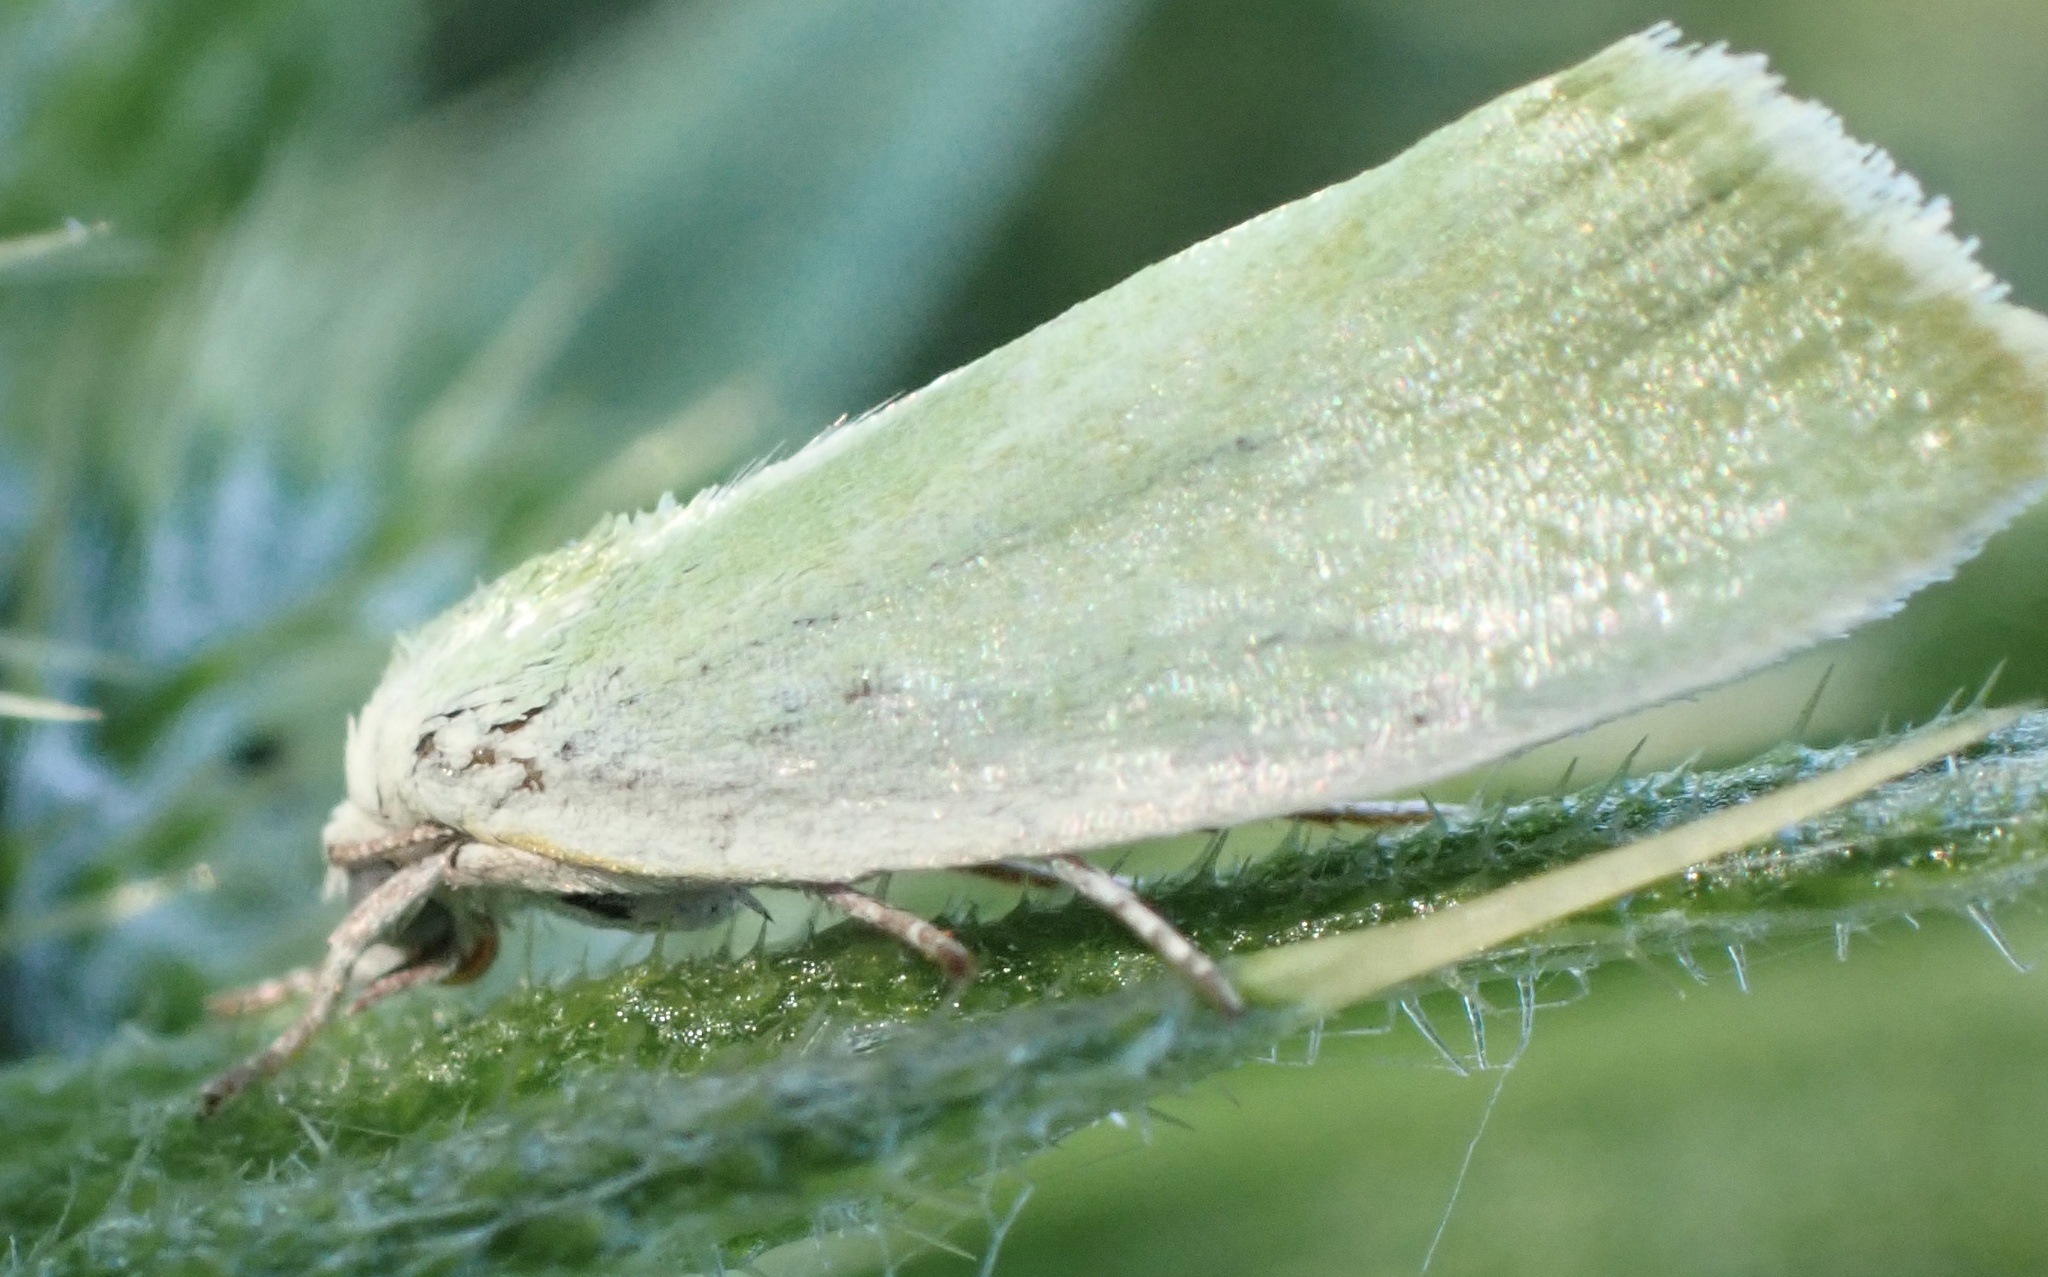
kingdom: Animalia
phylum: Arthropoda
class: Insecta
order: Lepidoptera
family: Nolidae
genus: Earias
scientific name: Earias clorana
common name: Cream-bordered green pea
